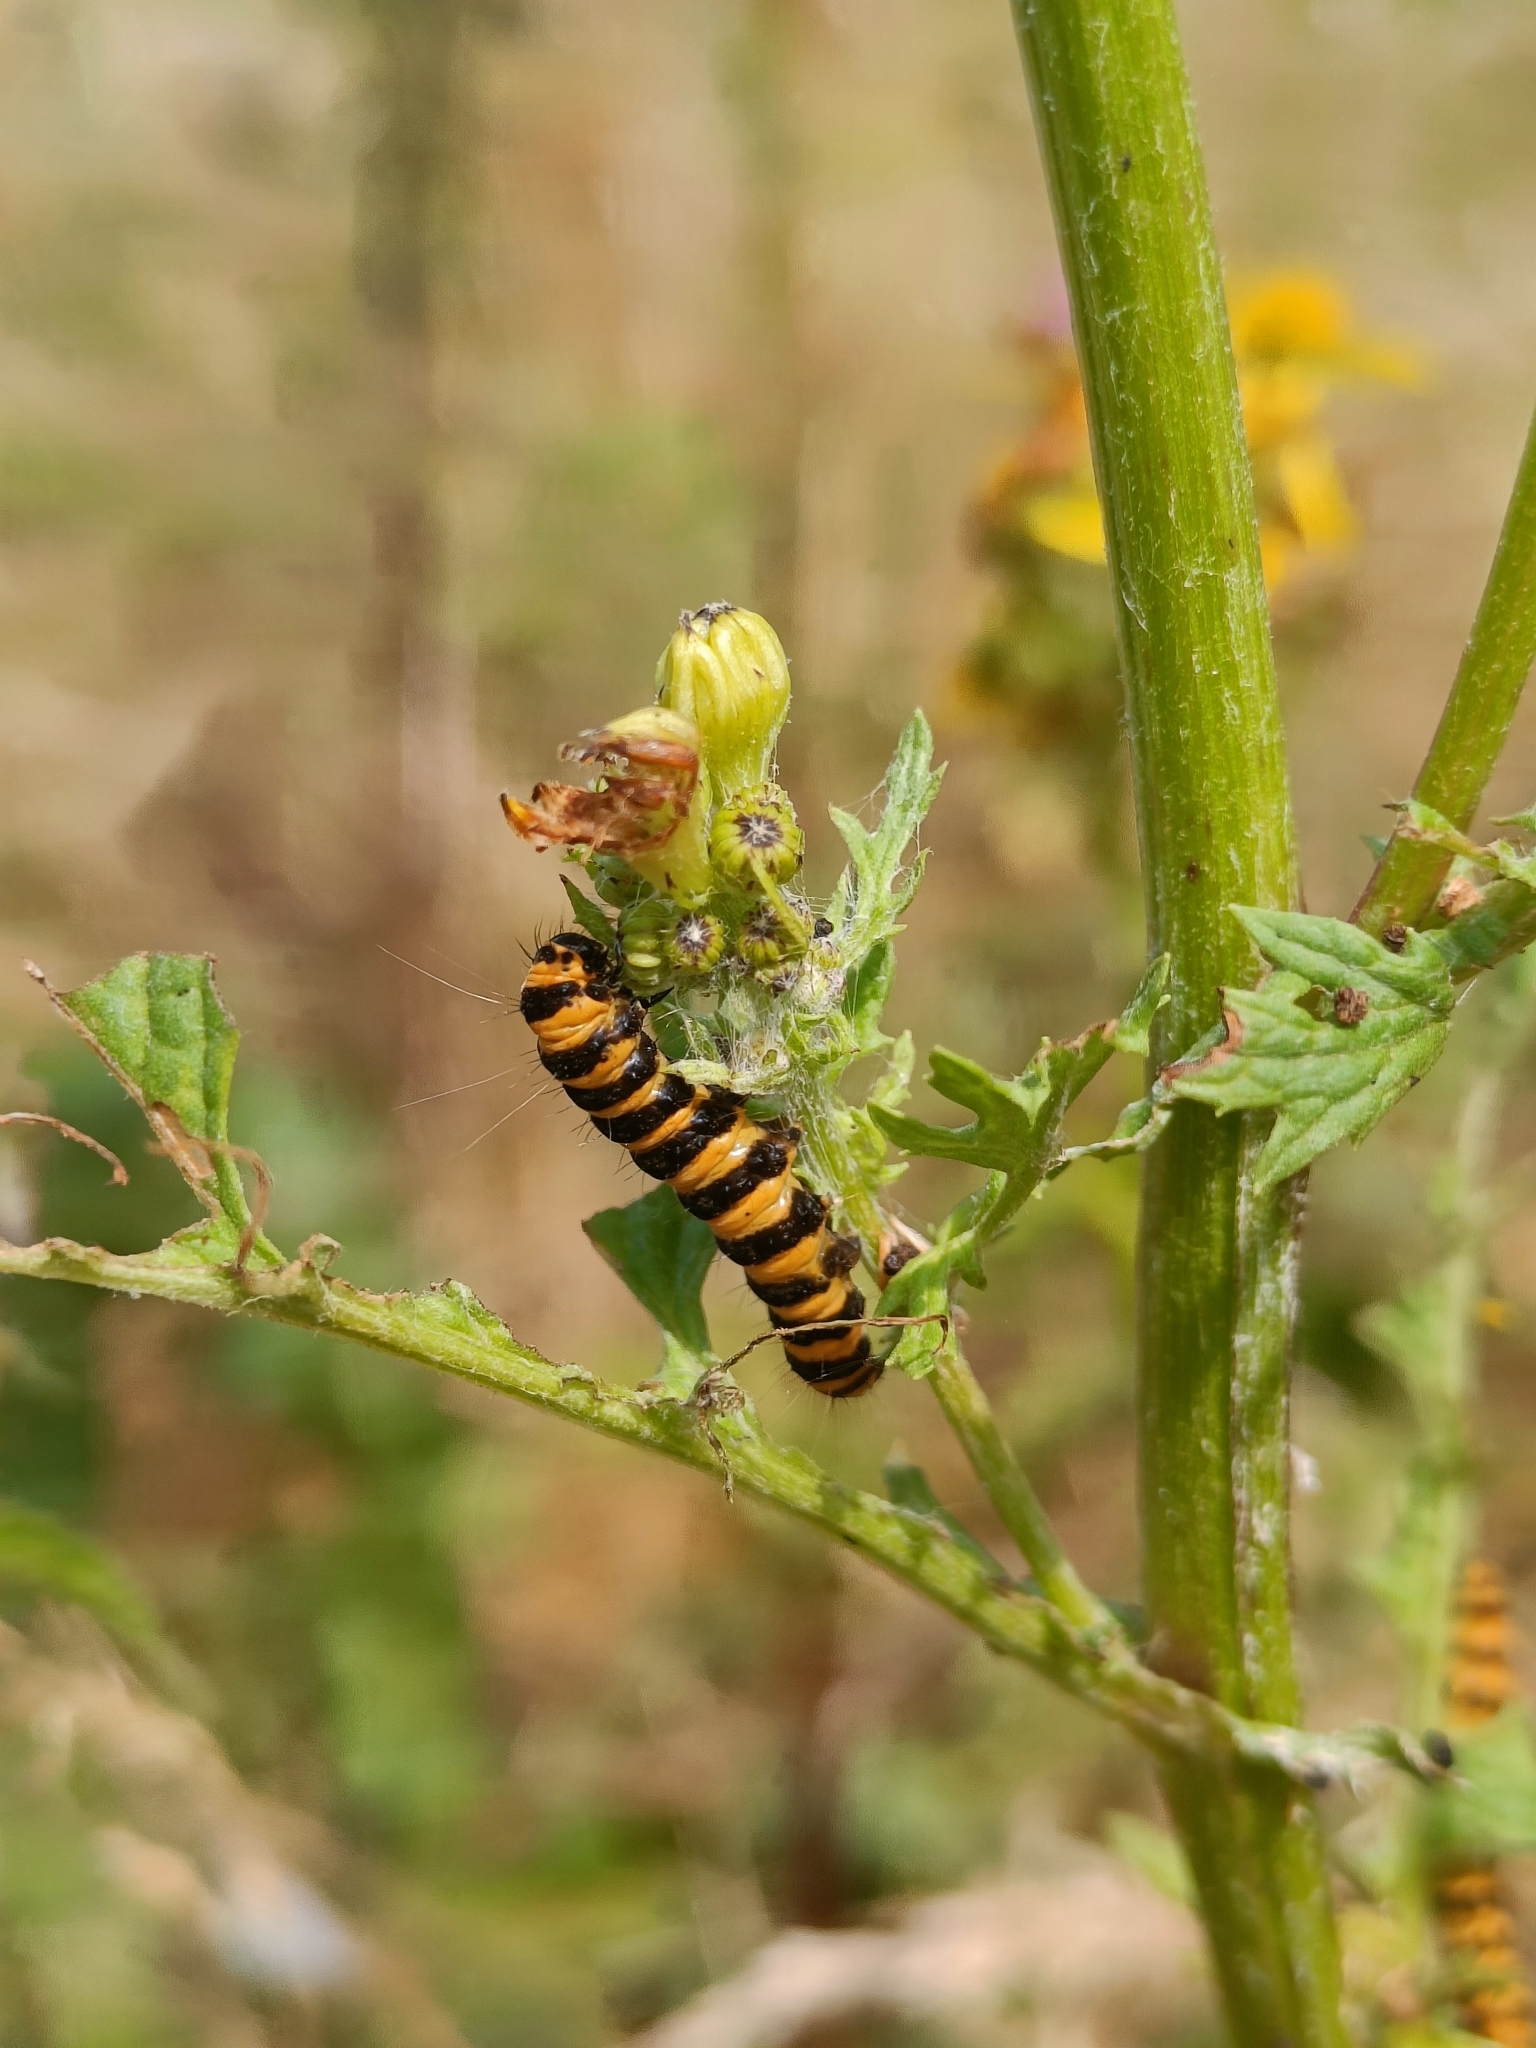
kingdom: Animalia
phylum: Arthropoda
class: Insecta
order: Lepidoptera
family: Erebidae
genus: Tyria
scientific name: Tyria jacobaeae
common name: Cinnabar
